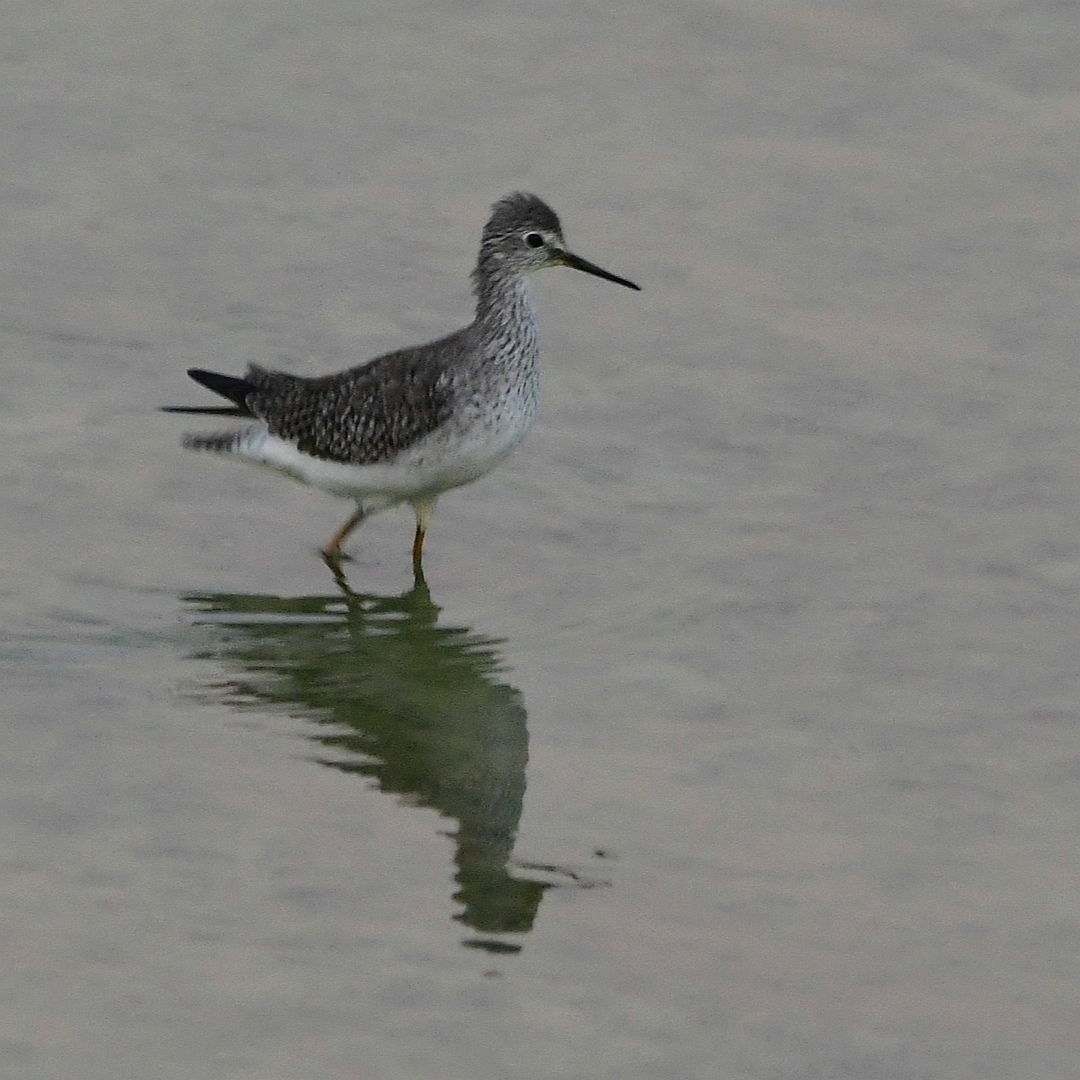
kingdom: Animalia
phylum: Chordata
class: Aves
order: Charadriiformes
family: Scolopacidae
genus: Tringa
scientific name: Tringa flavipes
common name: Lesser yellowlegs
